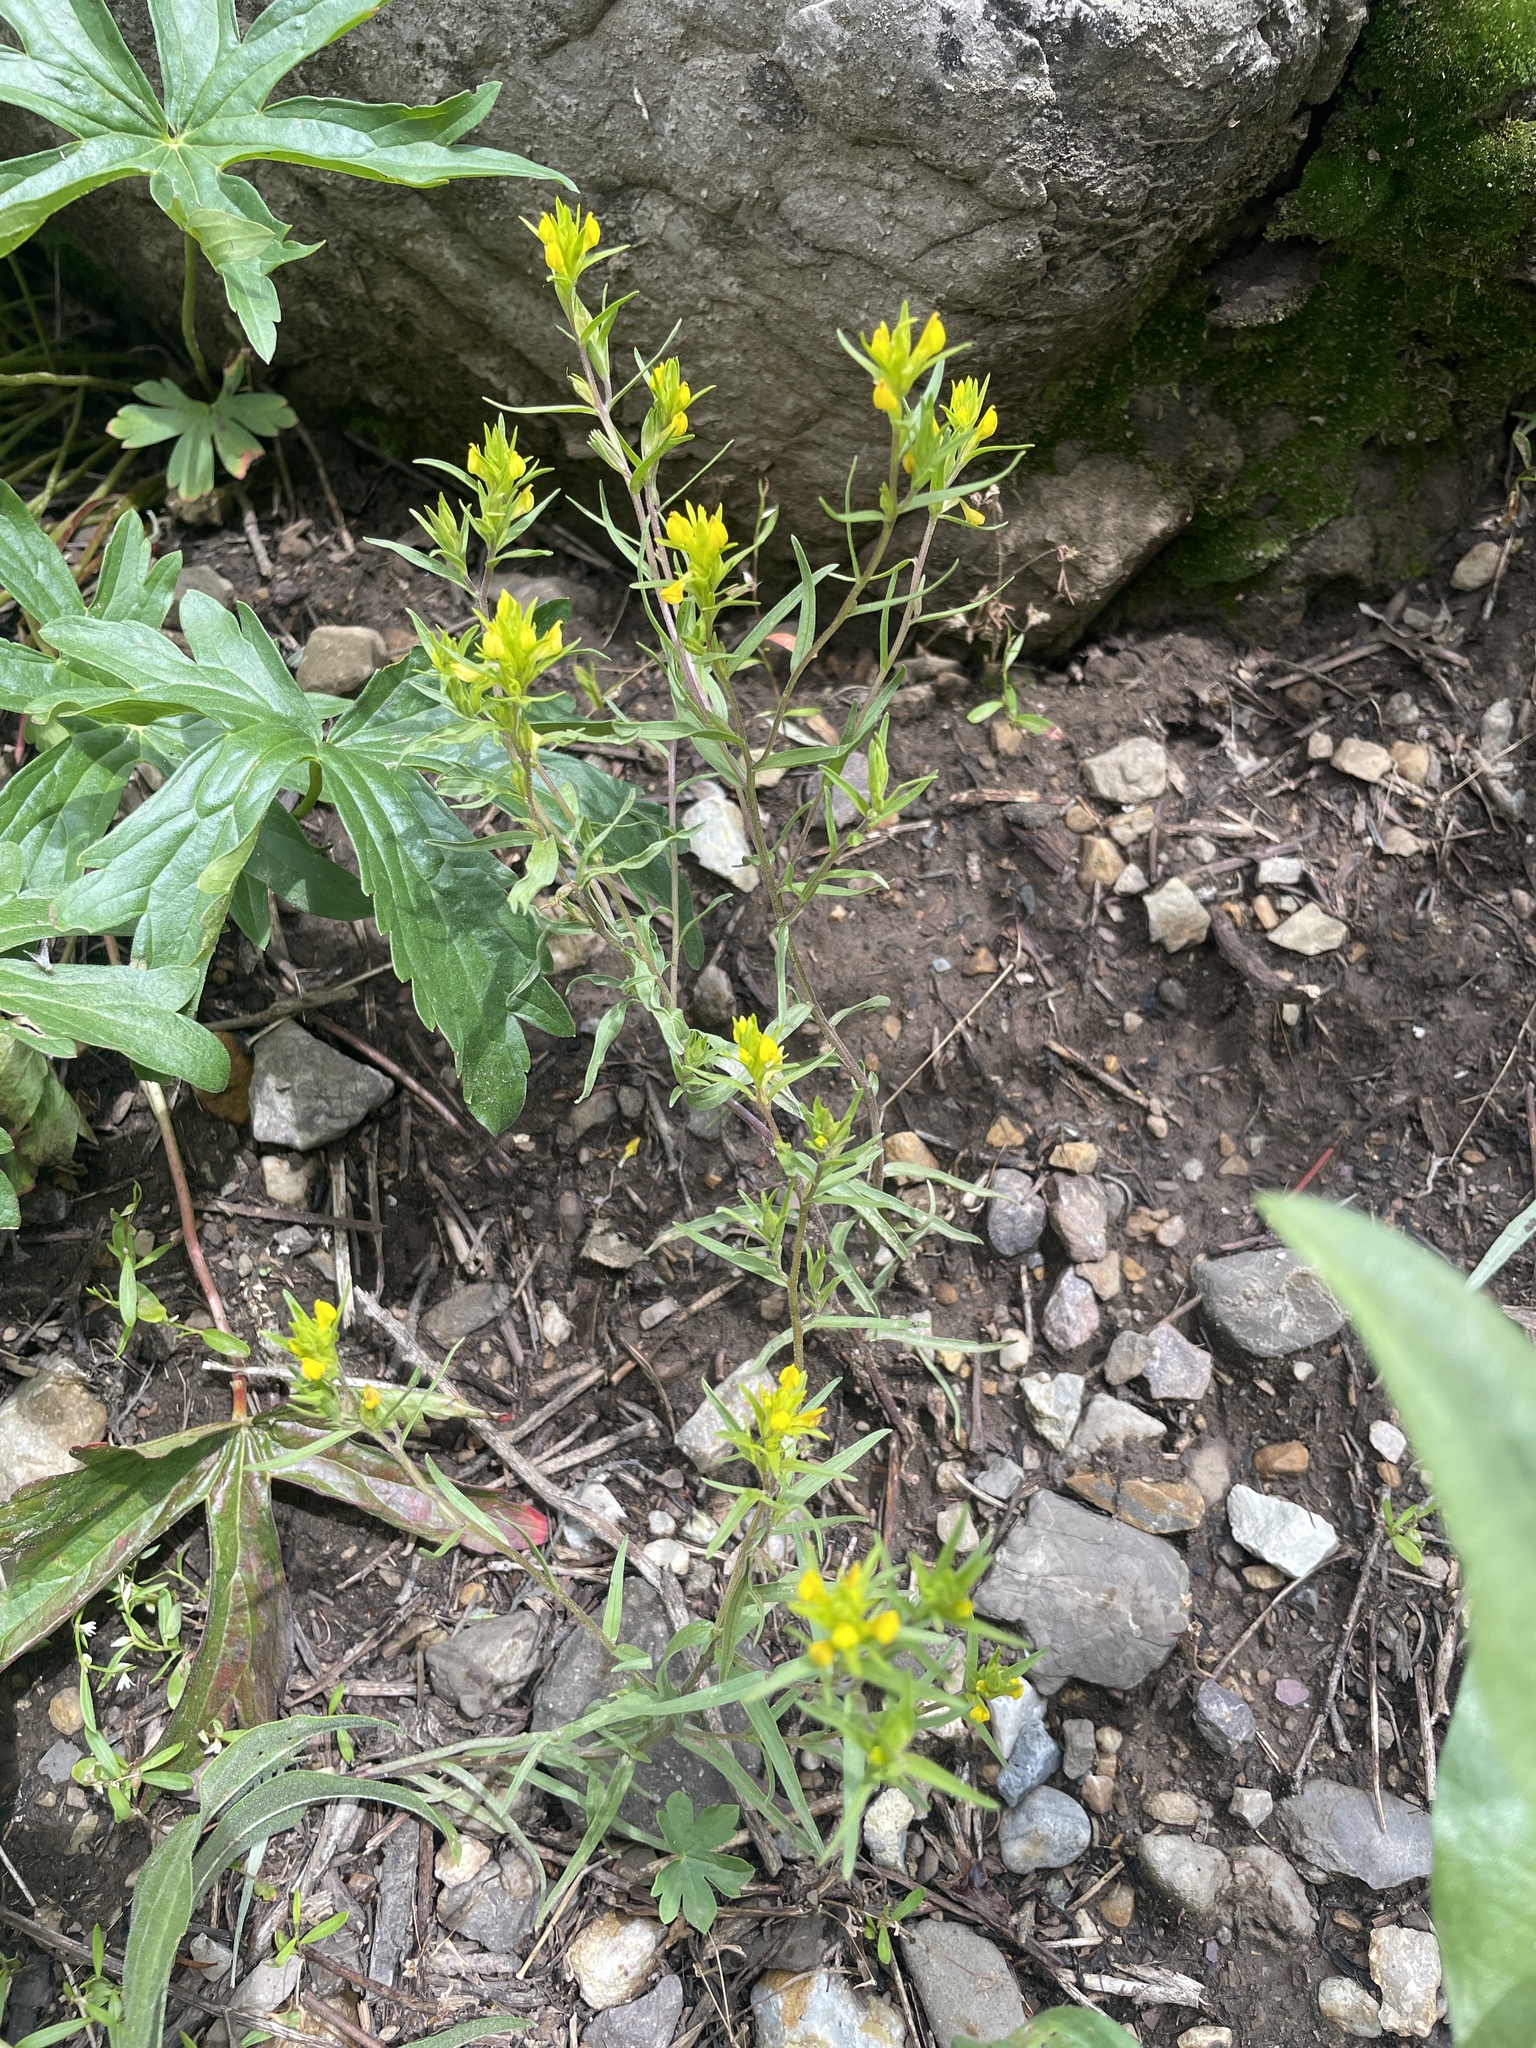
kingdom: Plantae
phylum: Tracheophyta
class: Magnoliopsida
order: Lamiales
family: Orobanchaceae
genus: Orthocarpus
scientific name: Orthocarpus tolmiei
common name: Tolmie's owl-clover
